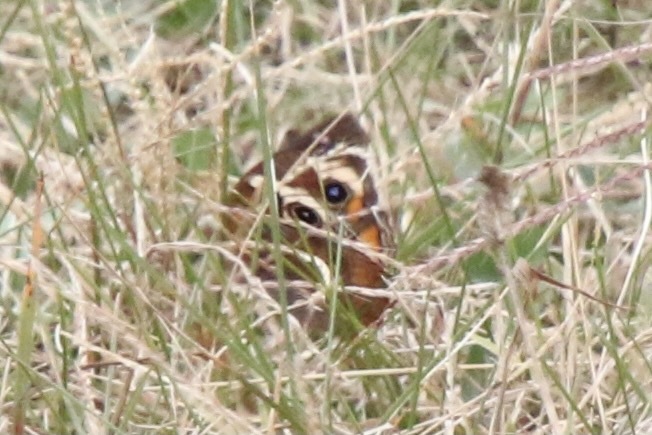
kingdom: Animalia
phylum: Arthropoda
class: Insecta
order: Lepidoptera
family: Nymphalidae
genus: Junonia
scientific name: Junonia coenia
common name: Common buckeye
